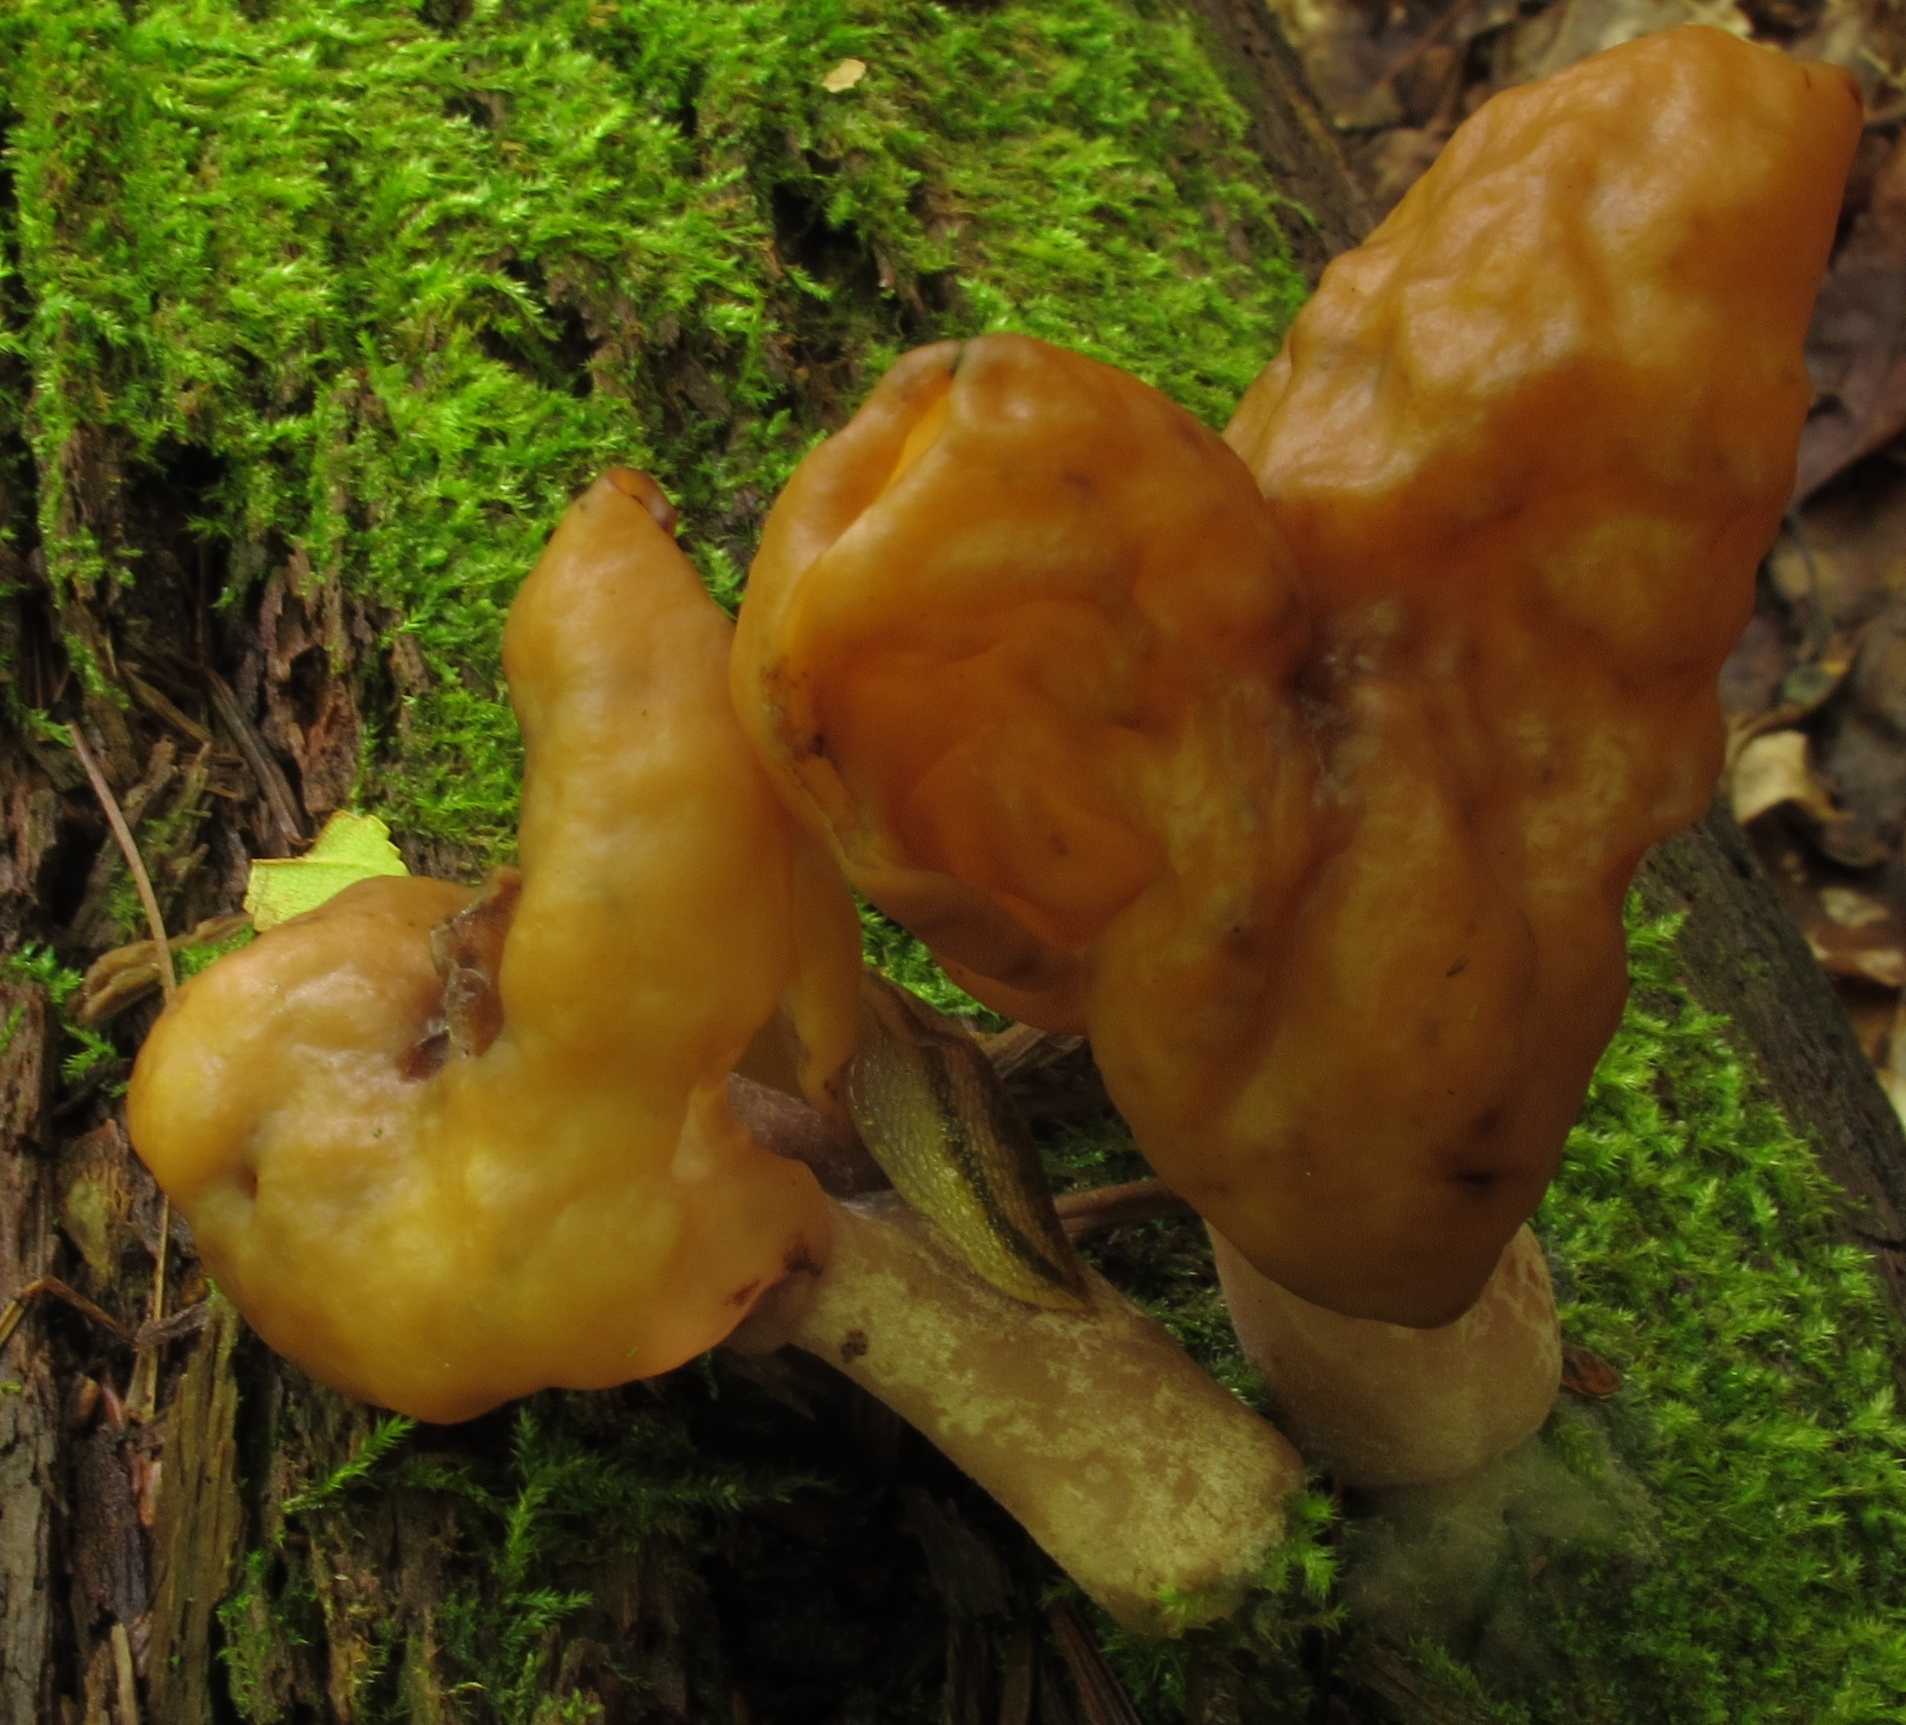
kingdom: Fungi
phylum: Ascomycota
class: Pezizomycetes
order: Pezizales
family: Discinaceae
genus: Gyromitra
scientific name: Gyromitra infula
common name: Pouched false morel
